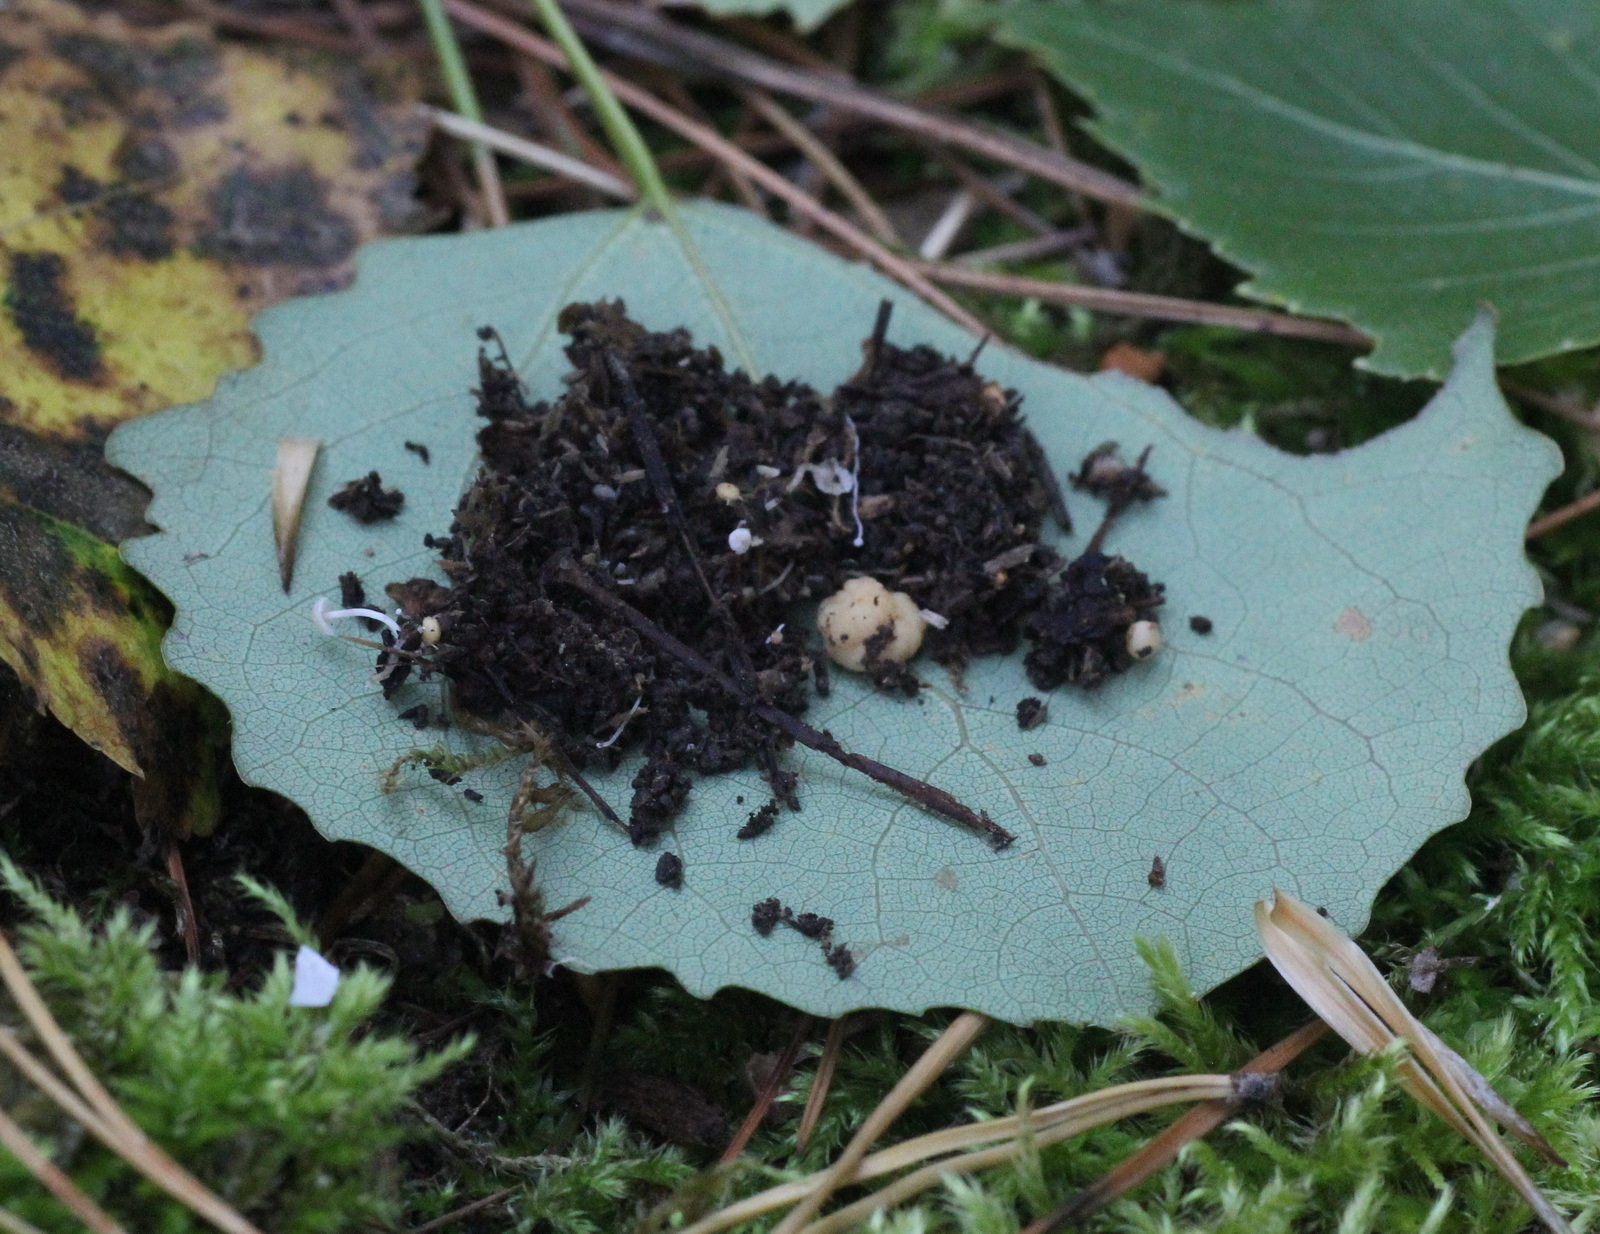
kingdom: Fungi
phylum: Basidiomycota
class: Agaricomycetes
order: Agaricales
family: Tricholomataceae
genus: Collybia
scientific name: Collybia cookei
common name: Splitpea shanklet
